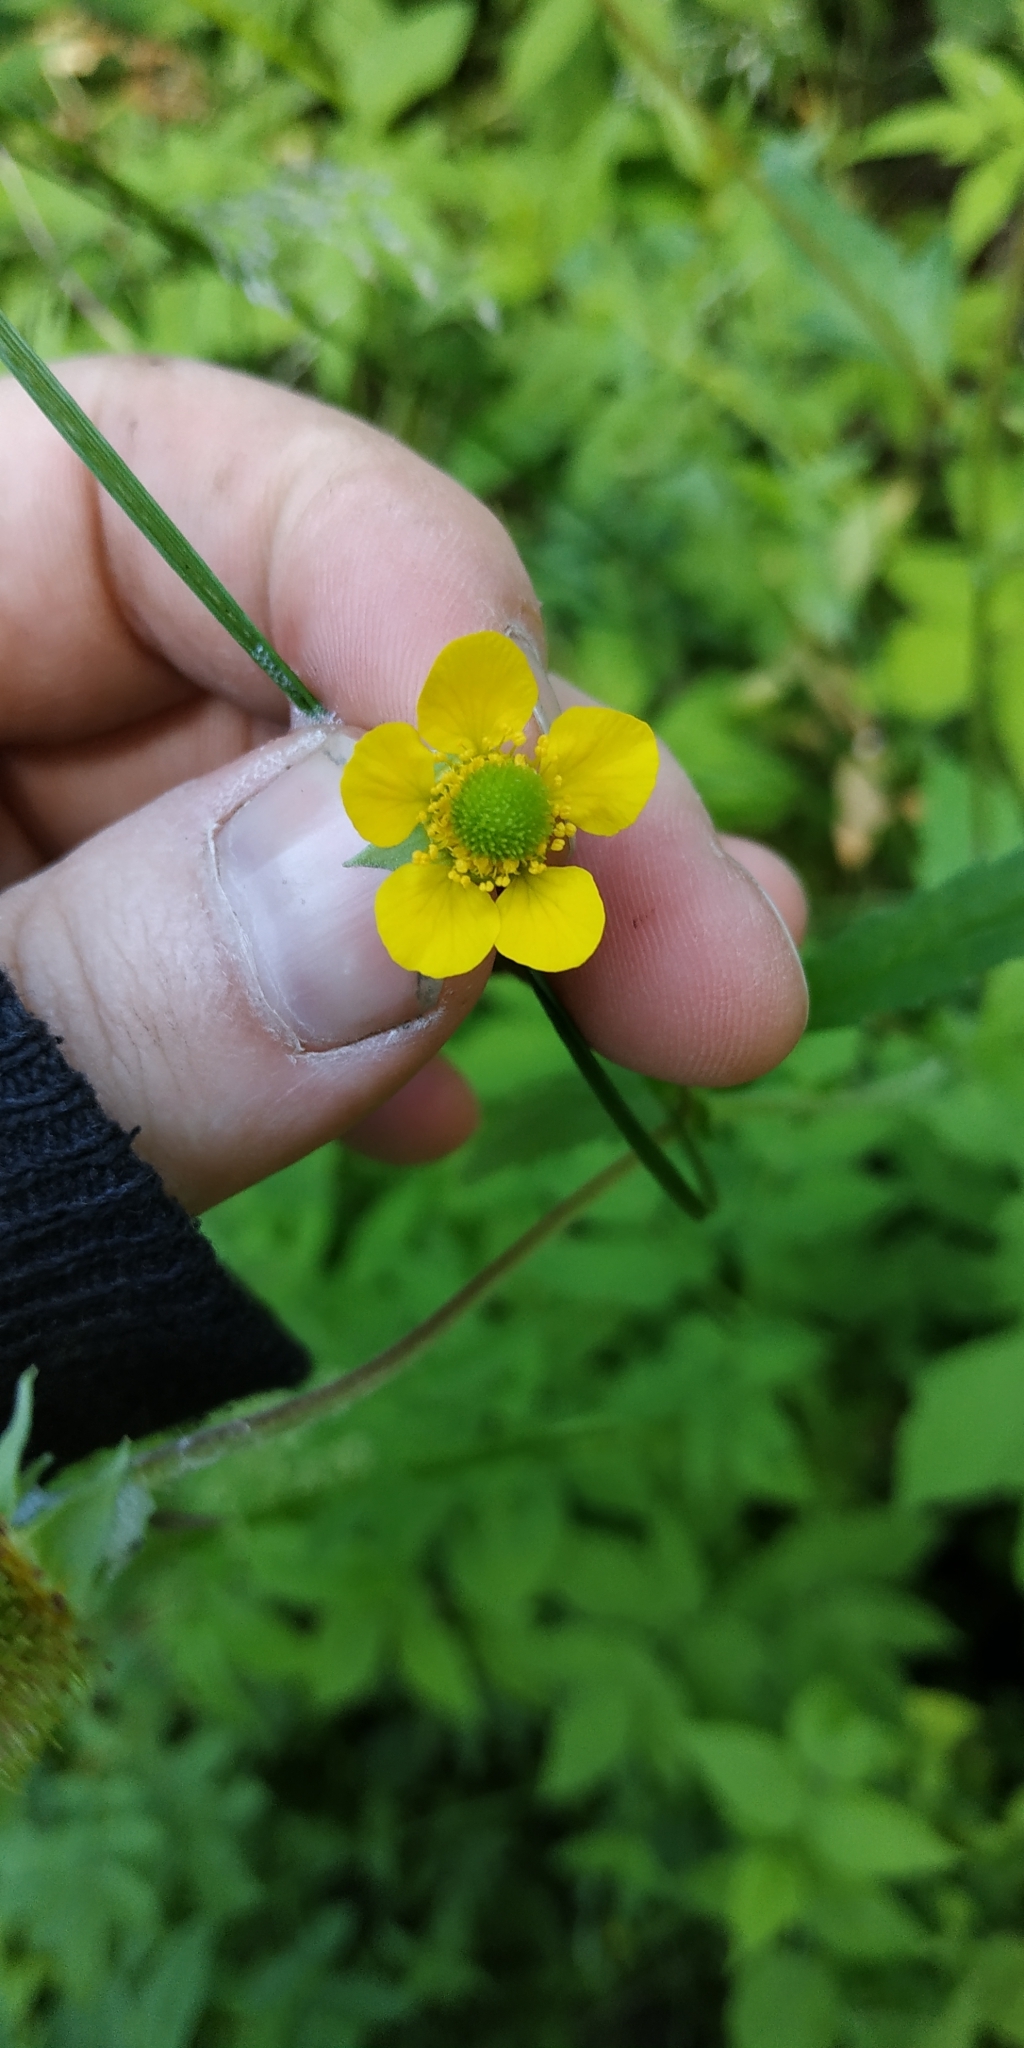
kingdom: Plantae
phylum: Tracheophyta
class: Magnoliopsida
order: Rosales
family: Rosaceae
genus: Geum
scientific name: Geum aleppicum
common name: Yellow avens
